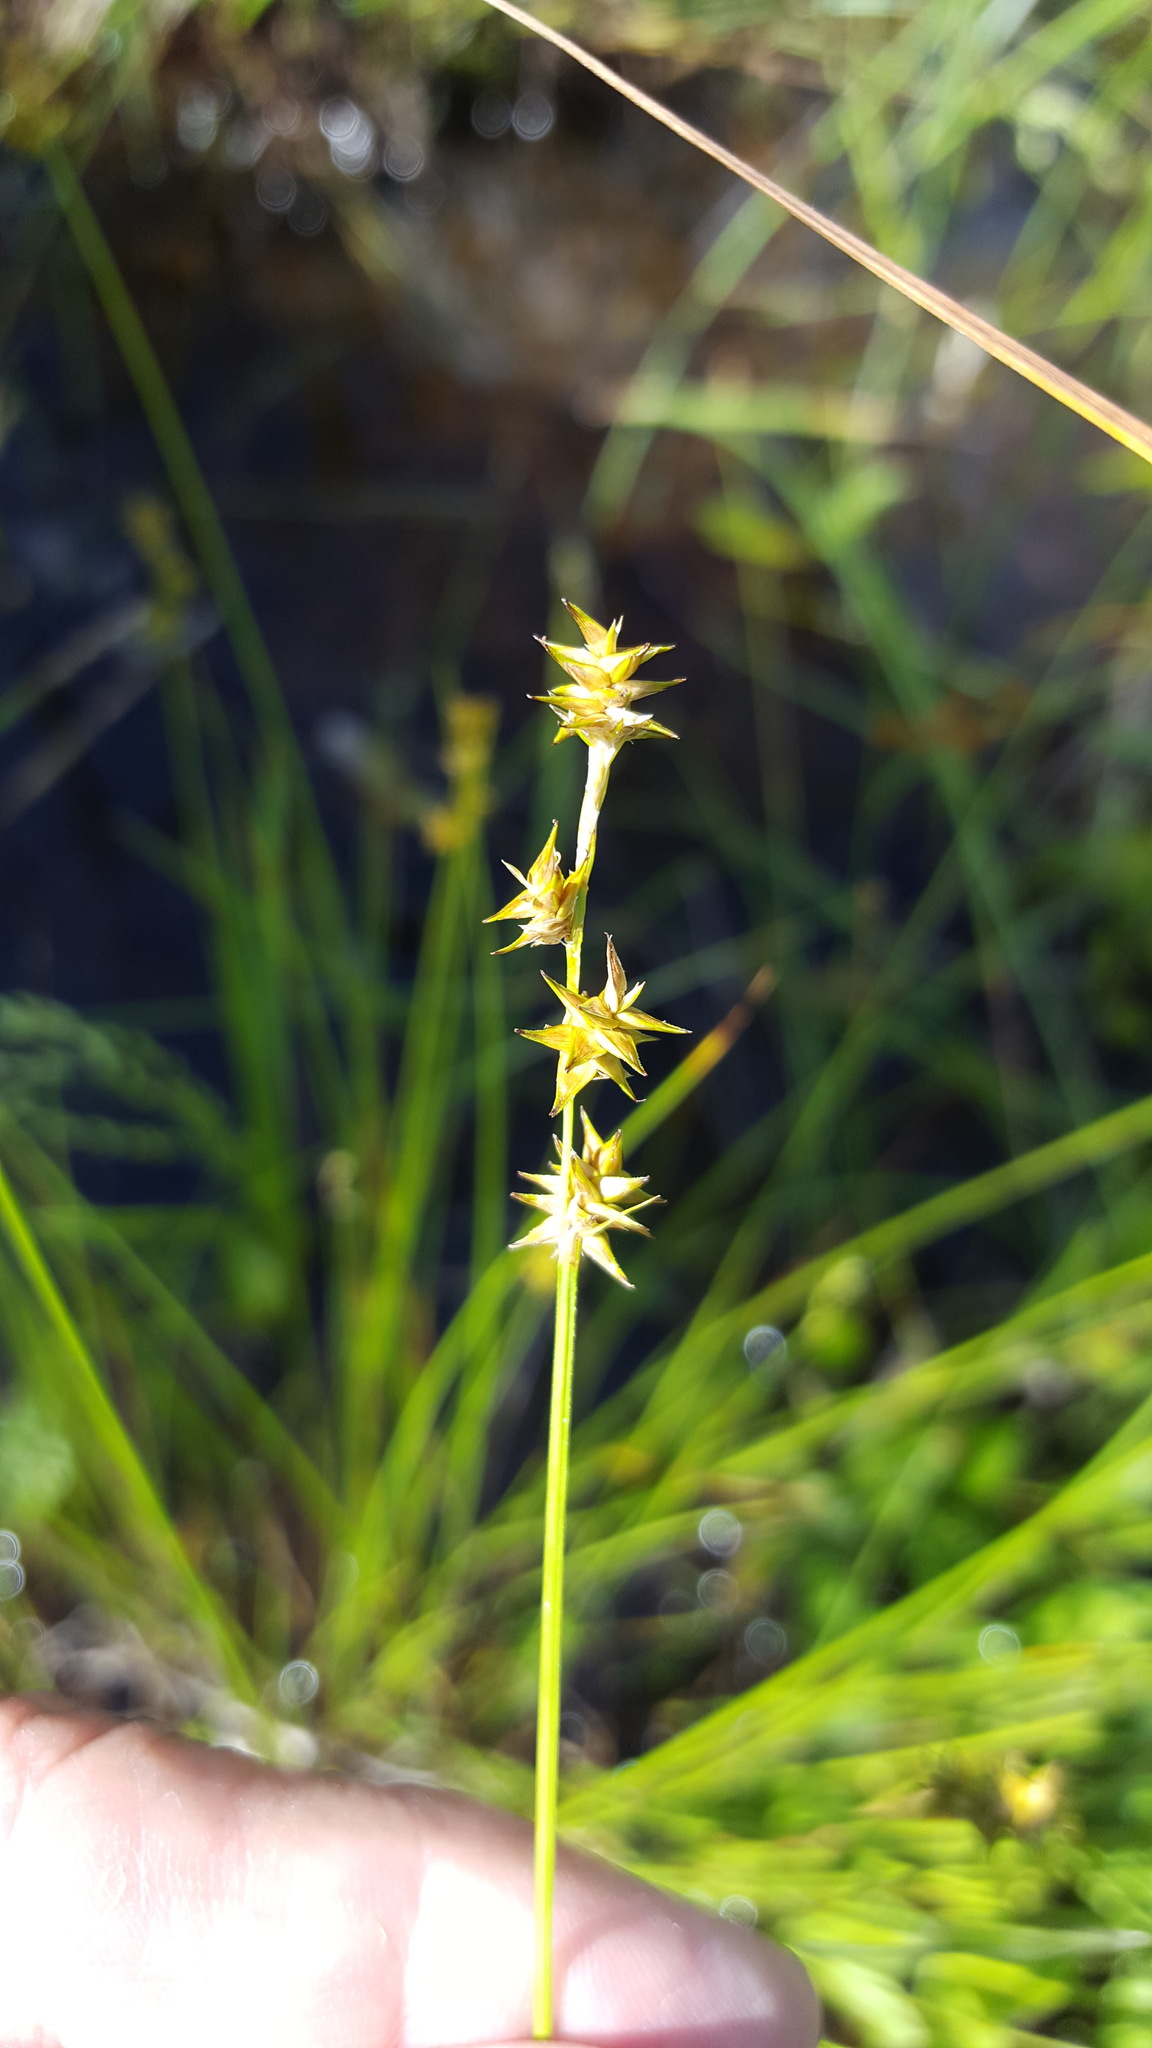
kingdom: Plantae
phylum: Tracheophyta
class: Liliopsida
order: Poales
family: Cyperaceae
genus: Carex
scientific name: Carex interior
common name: Inland sedge
